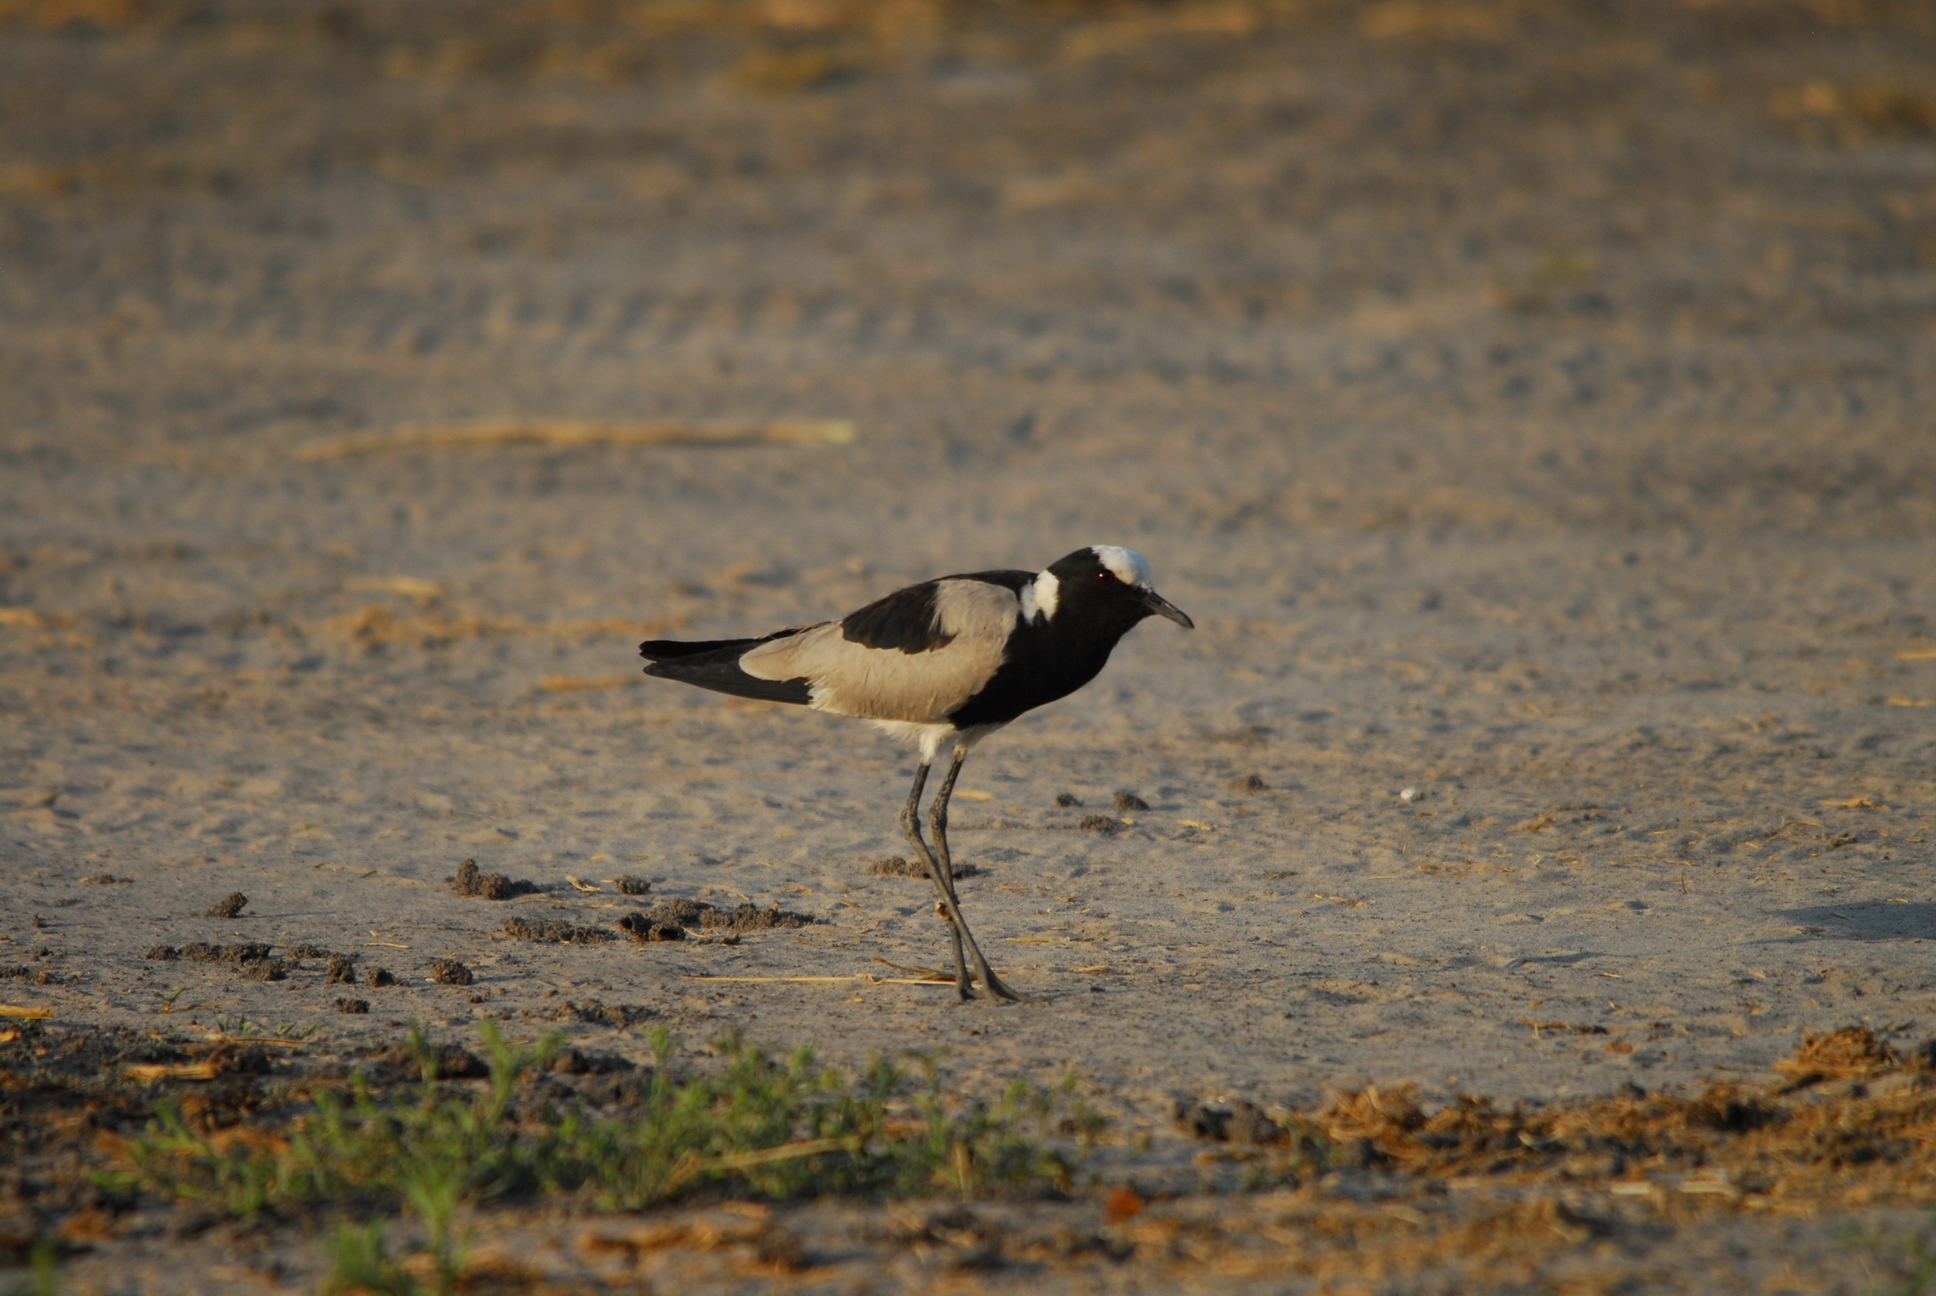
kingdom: Animalia
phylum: Chordata
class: Aves
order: Charadriiformes
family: Charadriidae
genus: Vanellus
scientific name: Vanellus armatus
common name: Blacksmith lapwing
